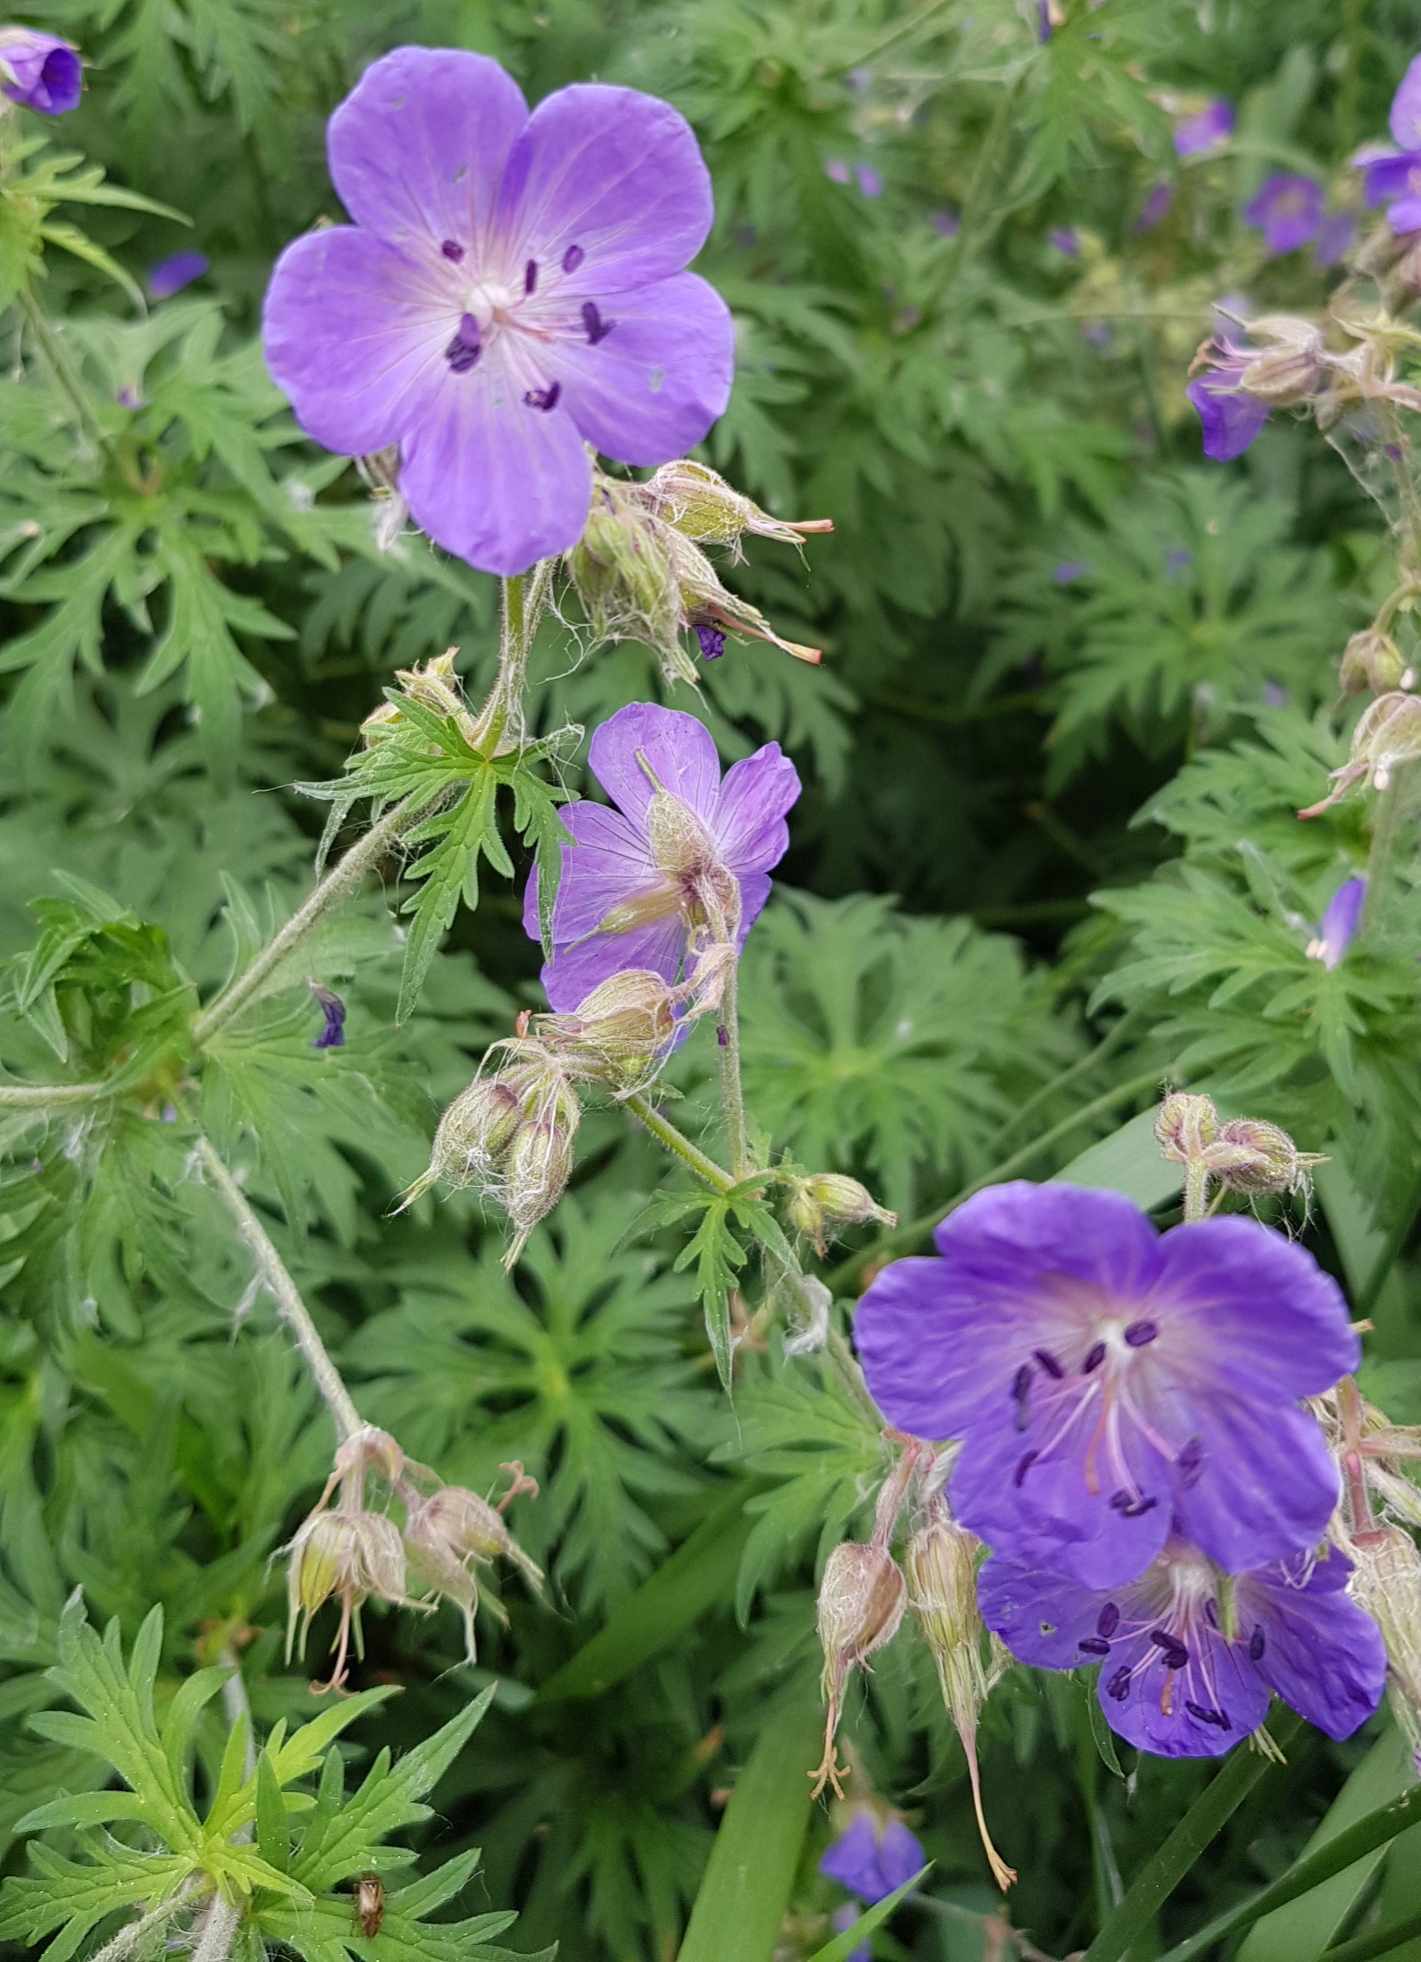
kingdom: Plantae
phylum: Tracheophyta
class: Magnoliopsida
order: Geraniales
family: Geraniaceae
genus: Geranium
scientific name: Geranium pratense
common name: Meadow crane's-bill
